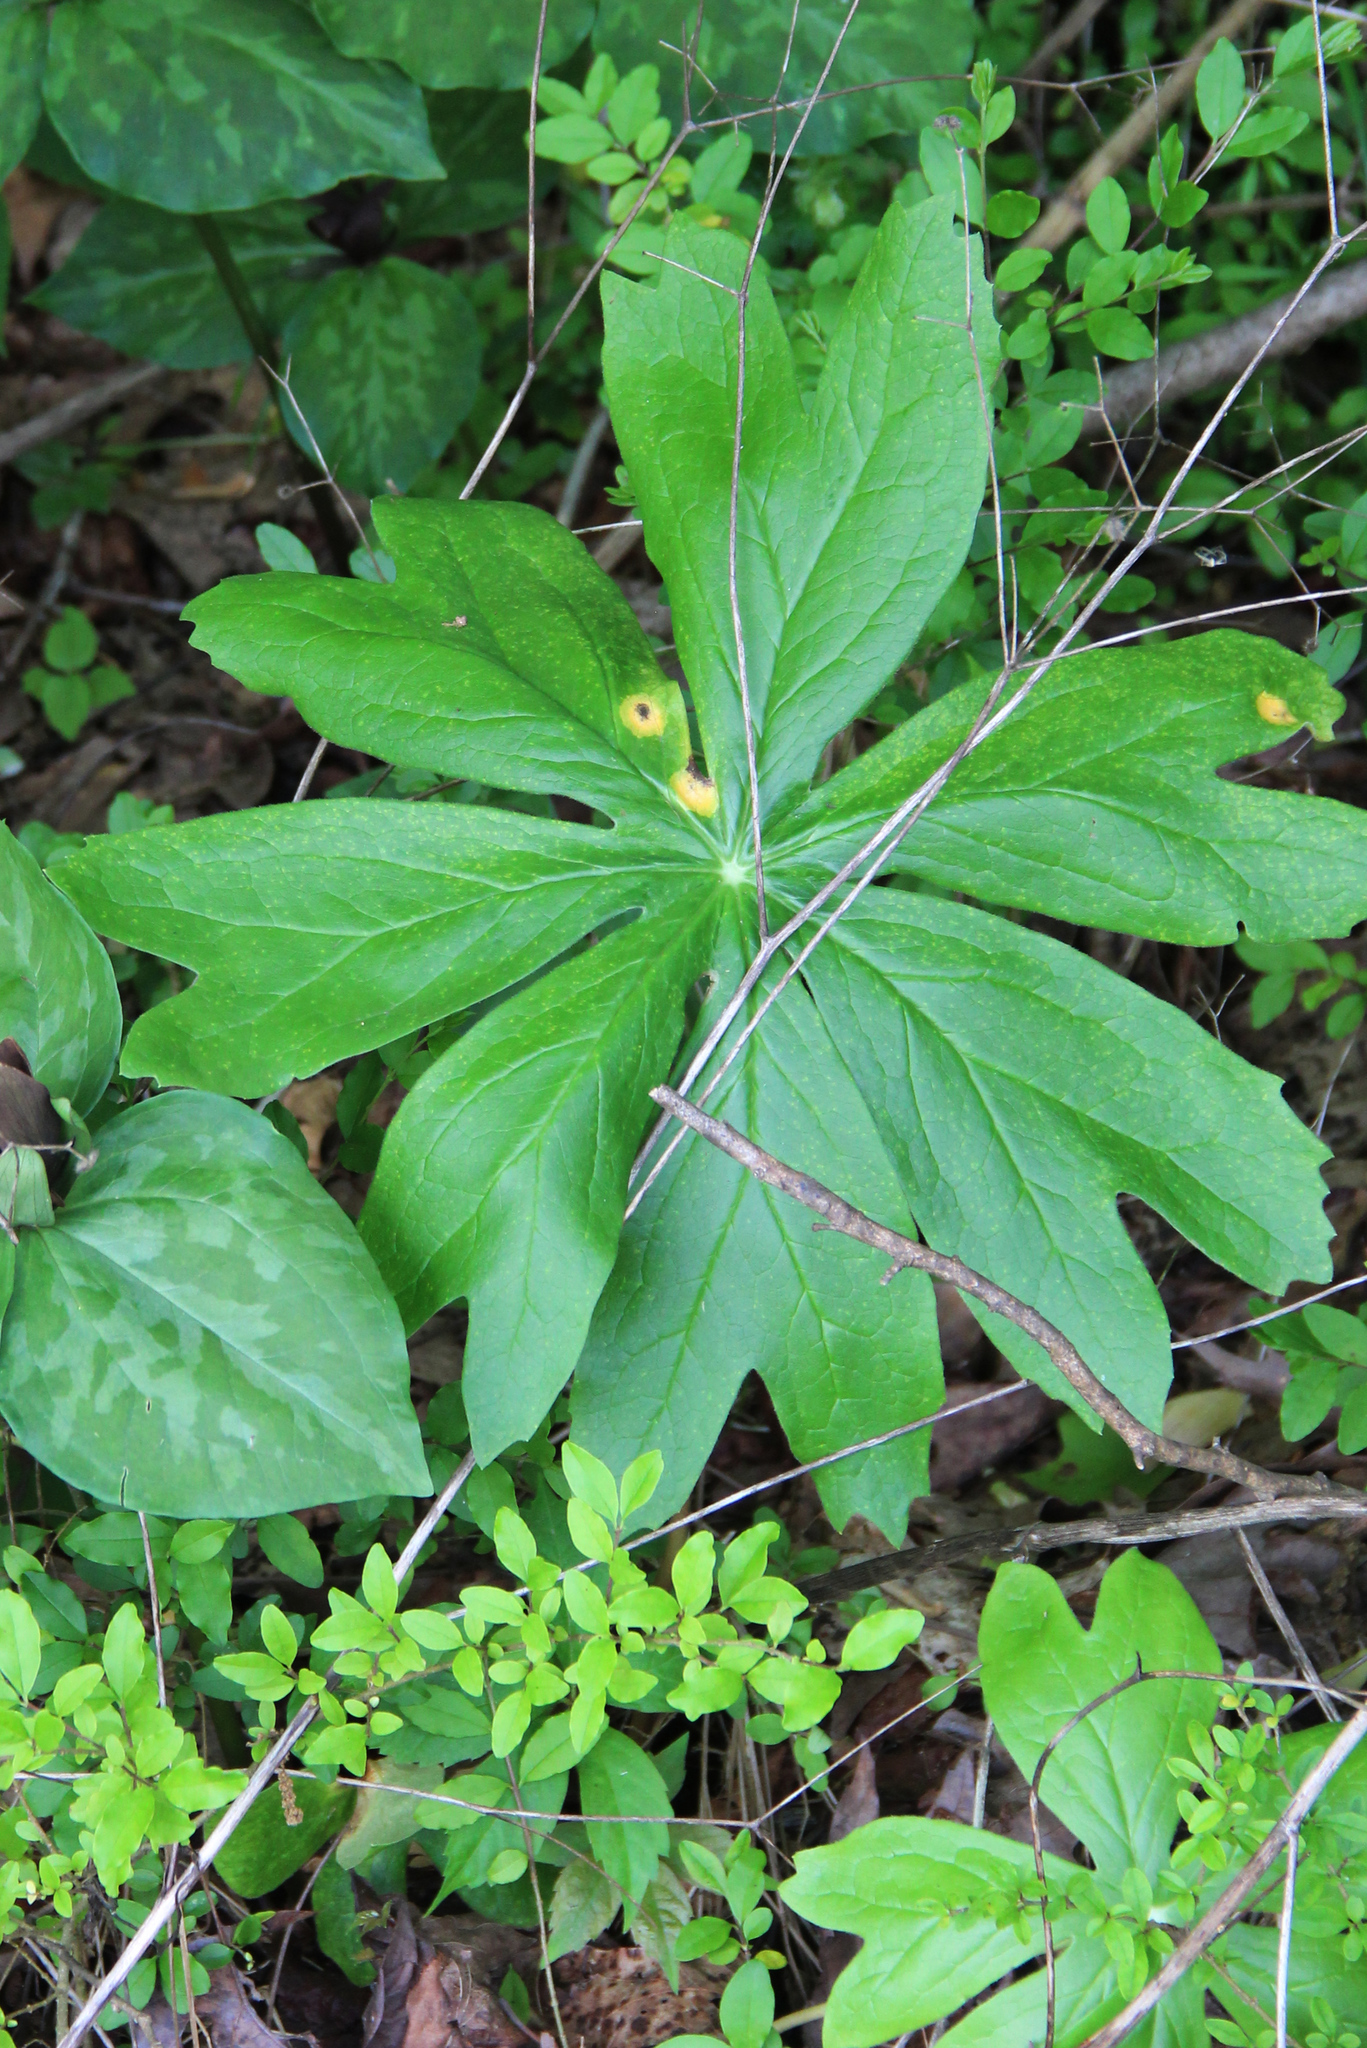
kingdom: Plantae
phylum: Tracheophyta
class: Magnoliopsida
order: Ranunculales
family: Berberidaceae
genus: Podophyllum
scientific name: Podophyllum peltatum
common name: Wild mandrake
